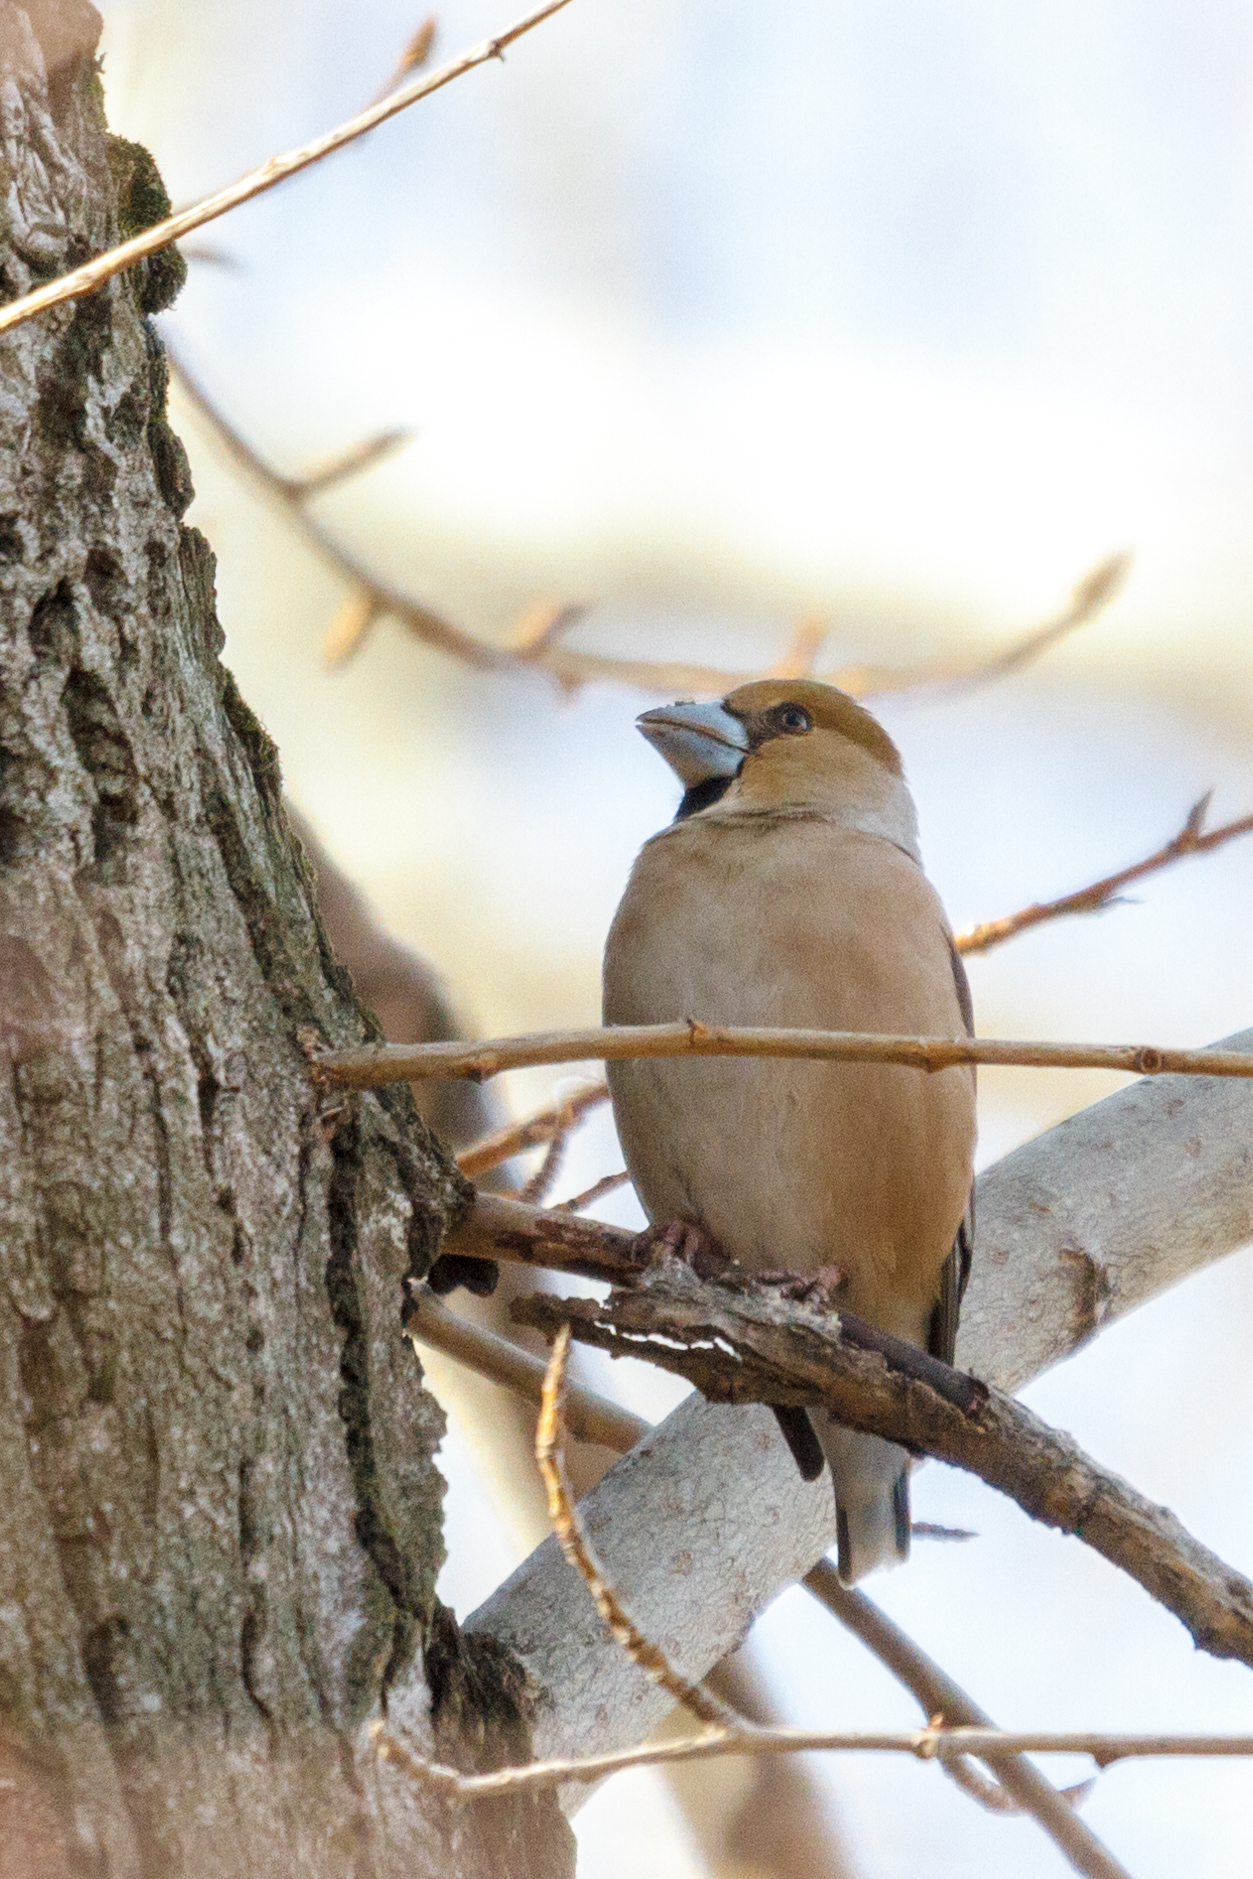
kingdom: Animalia
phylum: Chordata
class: Aves
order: Passeriformes
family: Fringillidae
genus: Coccothraustes
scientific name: Coccothraustes coccothraustes
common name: Hawfinch
